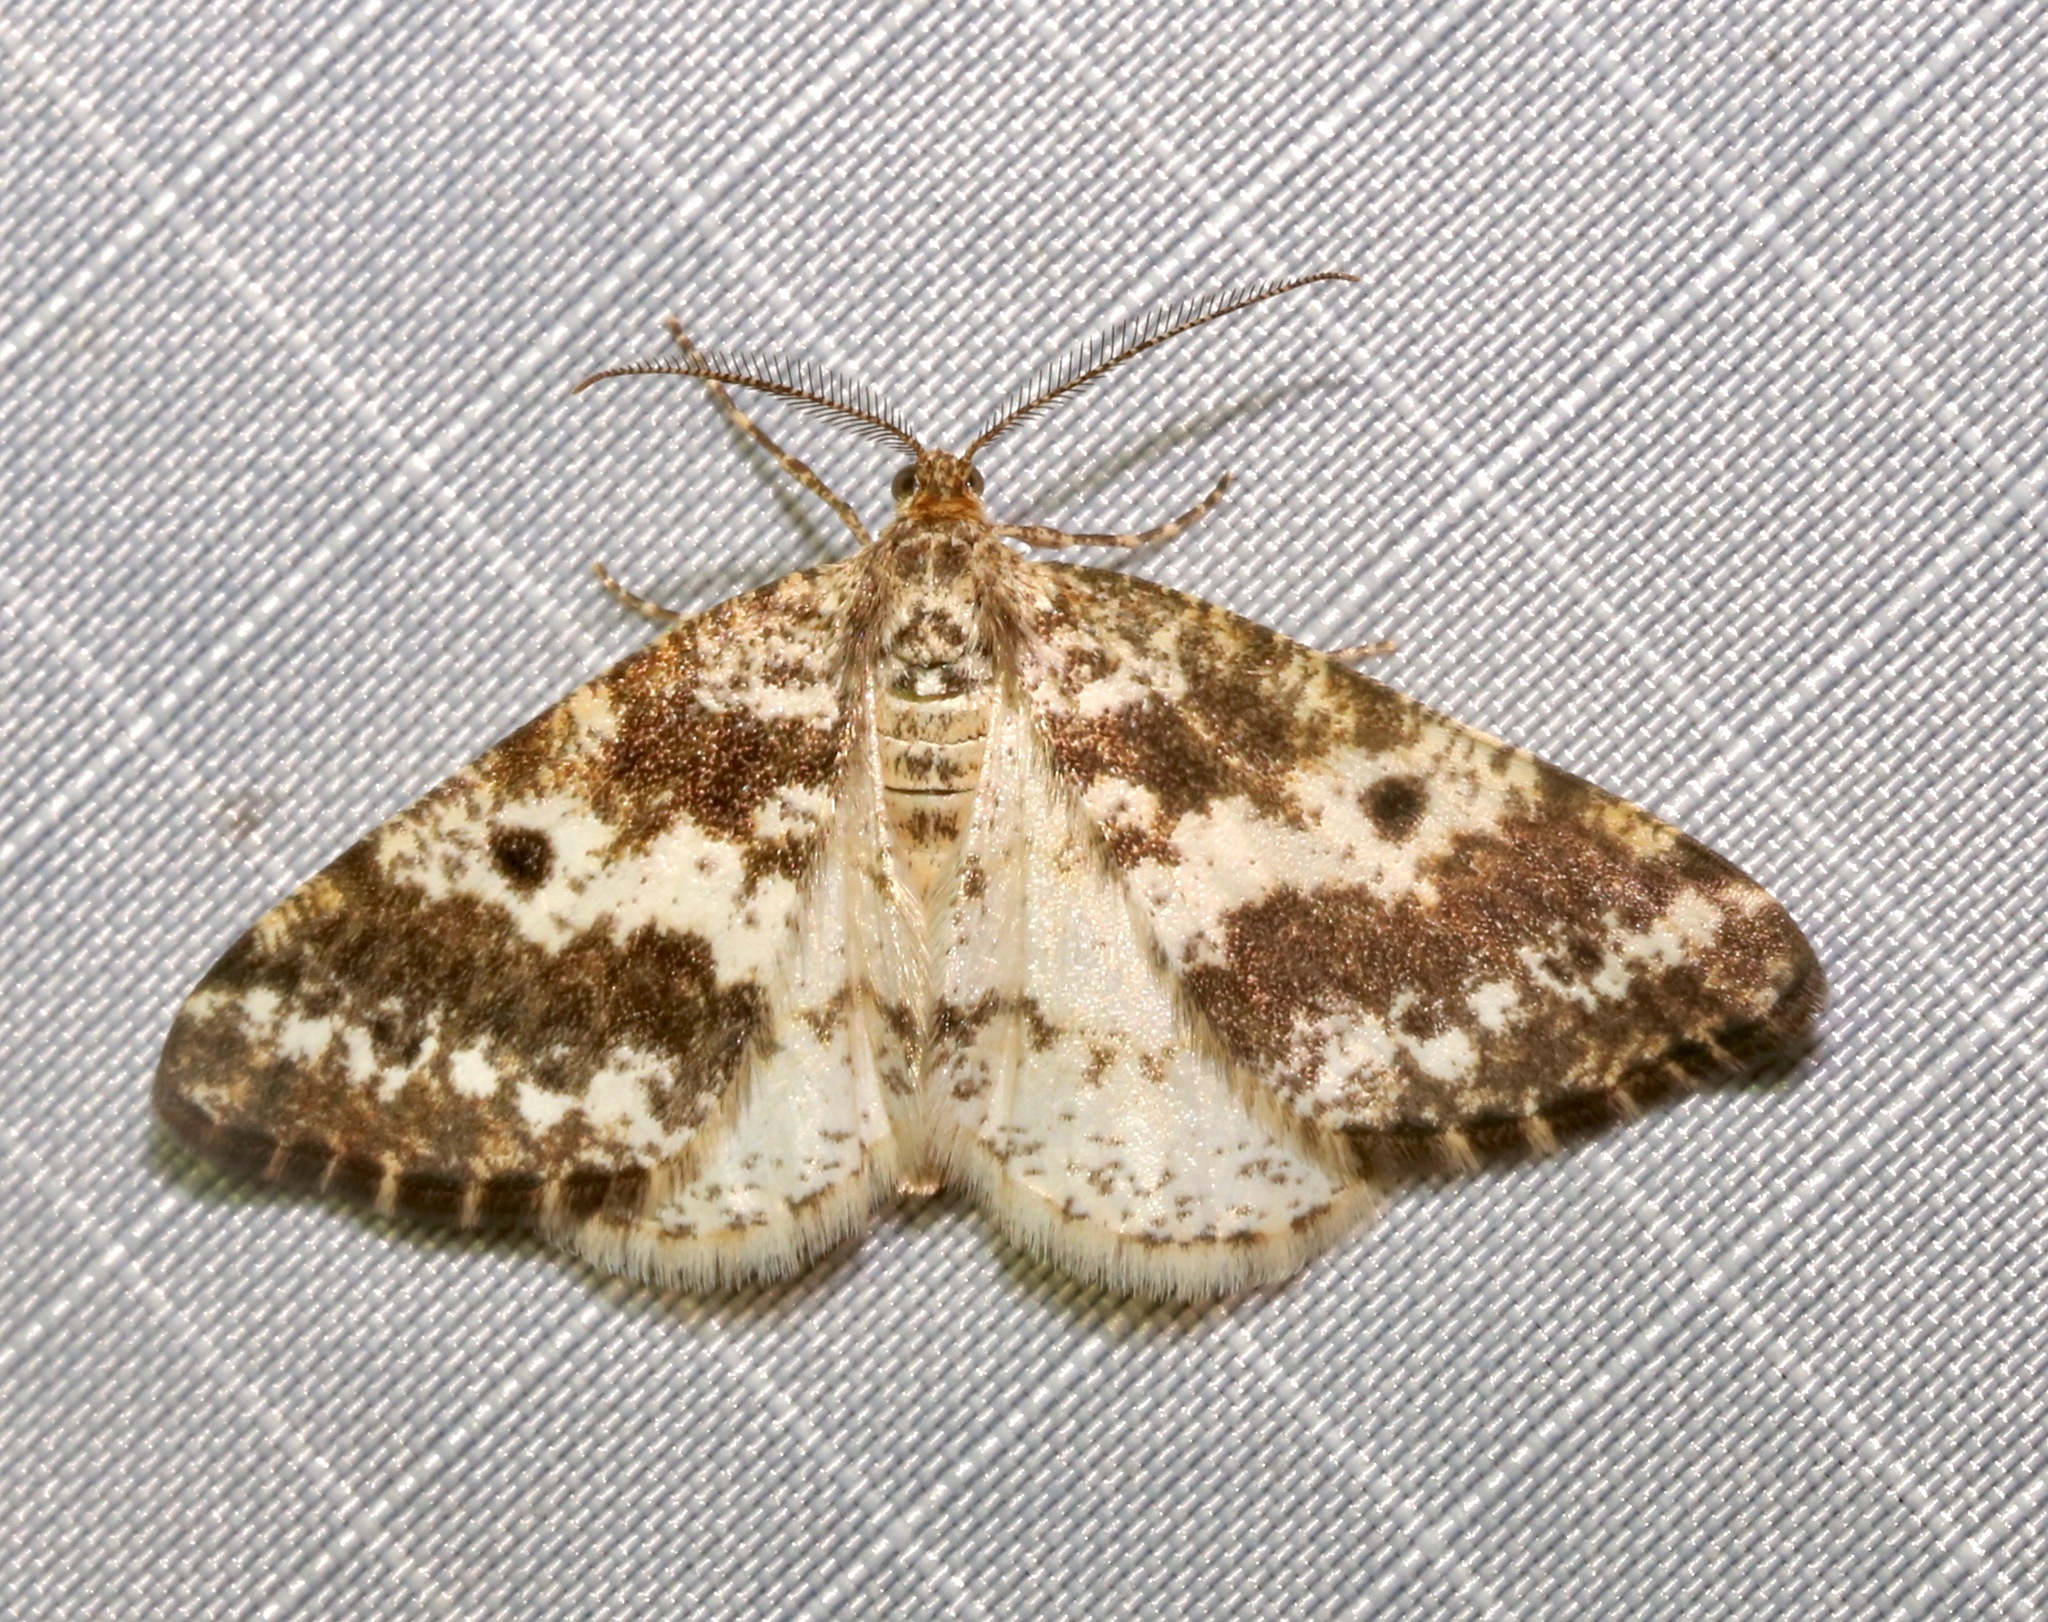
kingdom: Animalia
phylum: Arthropoda
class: Insecta
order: Lepidoptera
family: Geometridae
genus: Eufidonia
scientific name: Eufidonia notataria
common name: Powder moth
